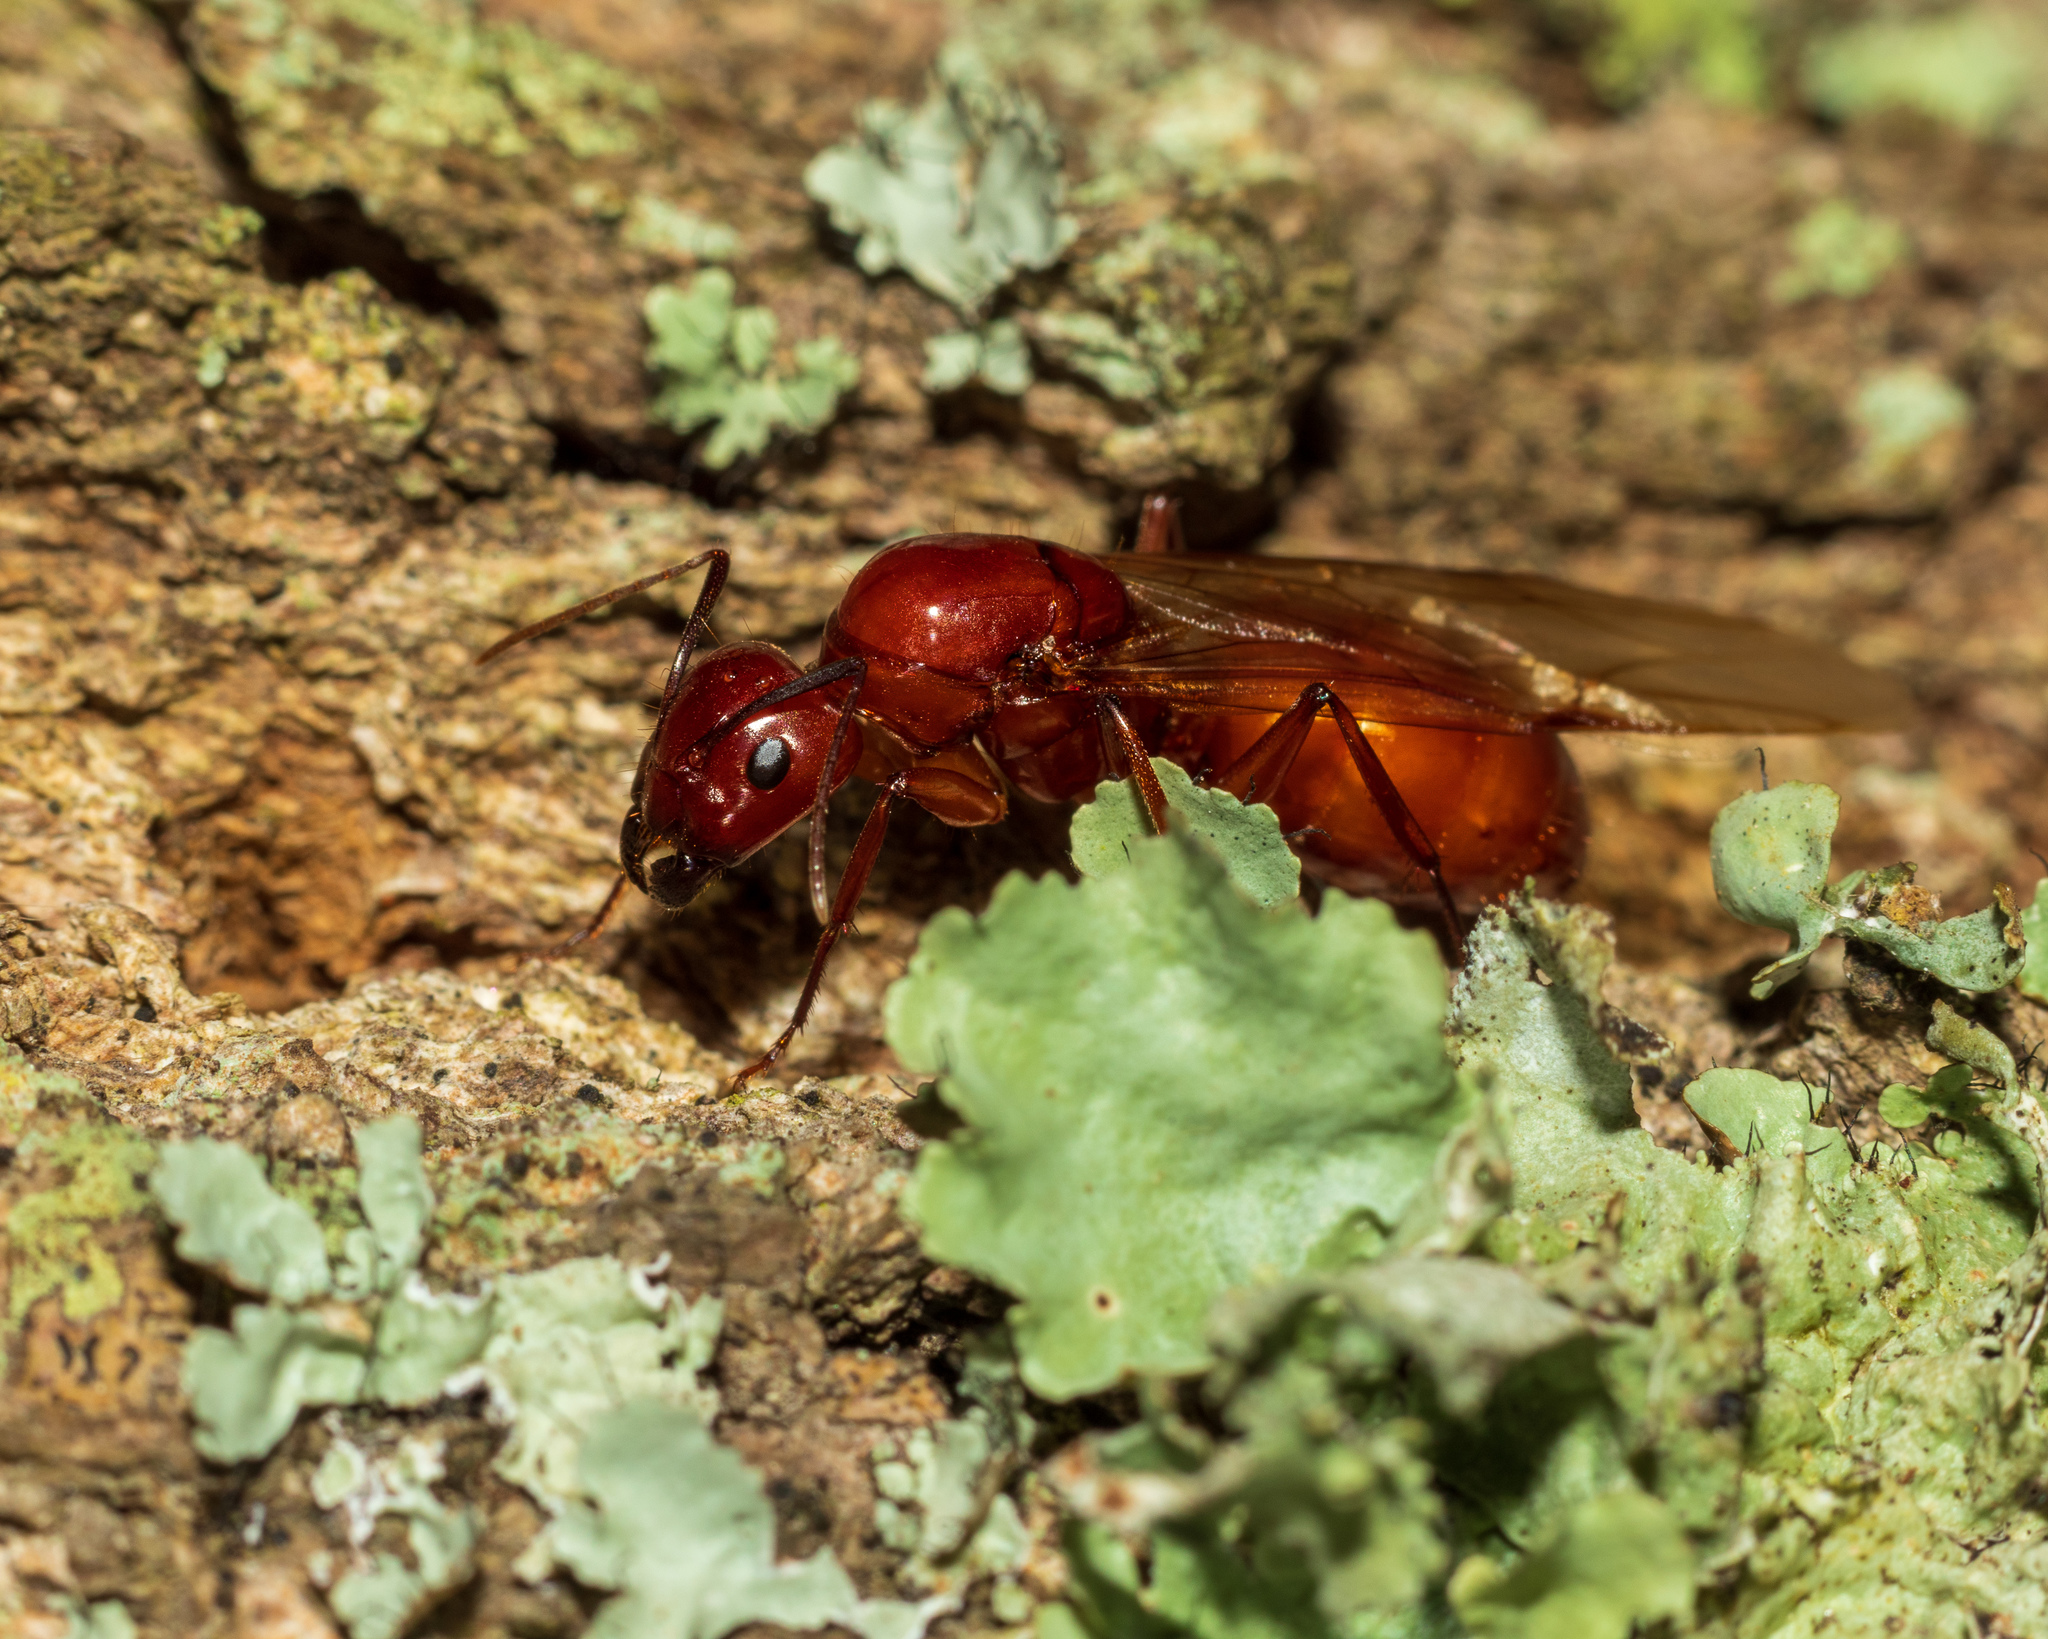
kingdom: Animalia
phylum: Arthropoda
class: Insecta
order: Hymenoptera
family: Formicidae
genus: Camponotus
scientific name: Camponotus castaneus
